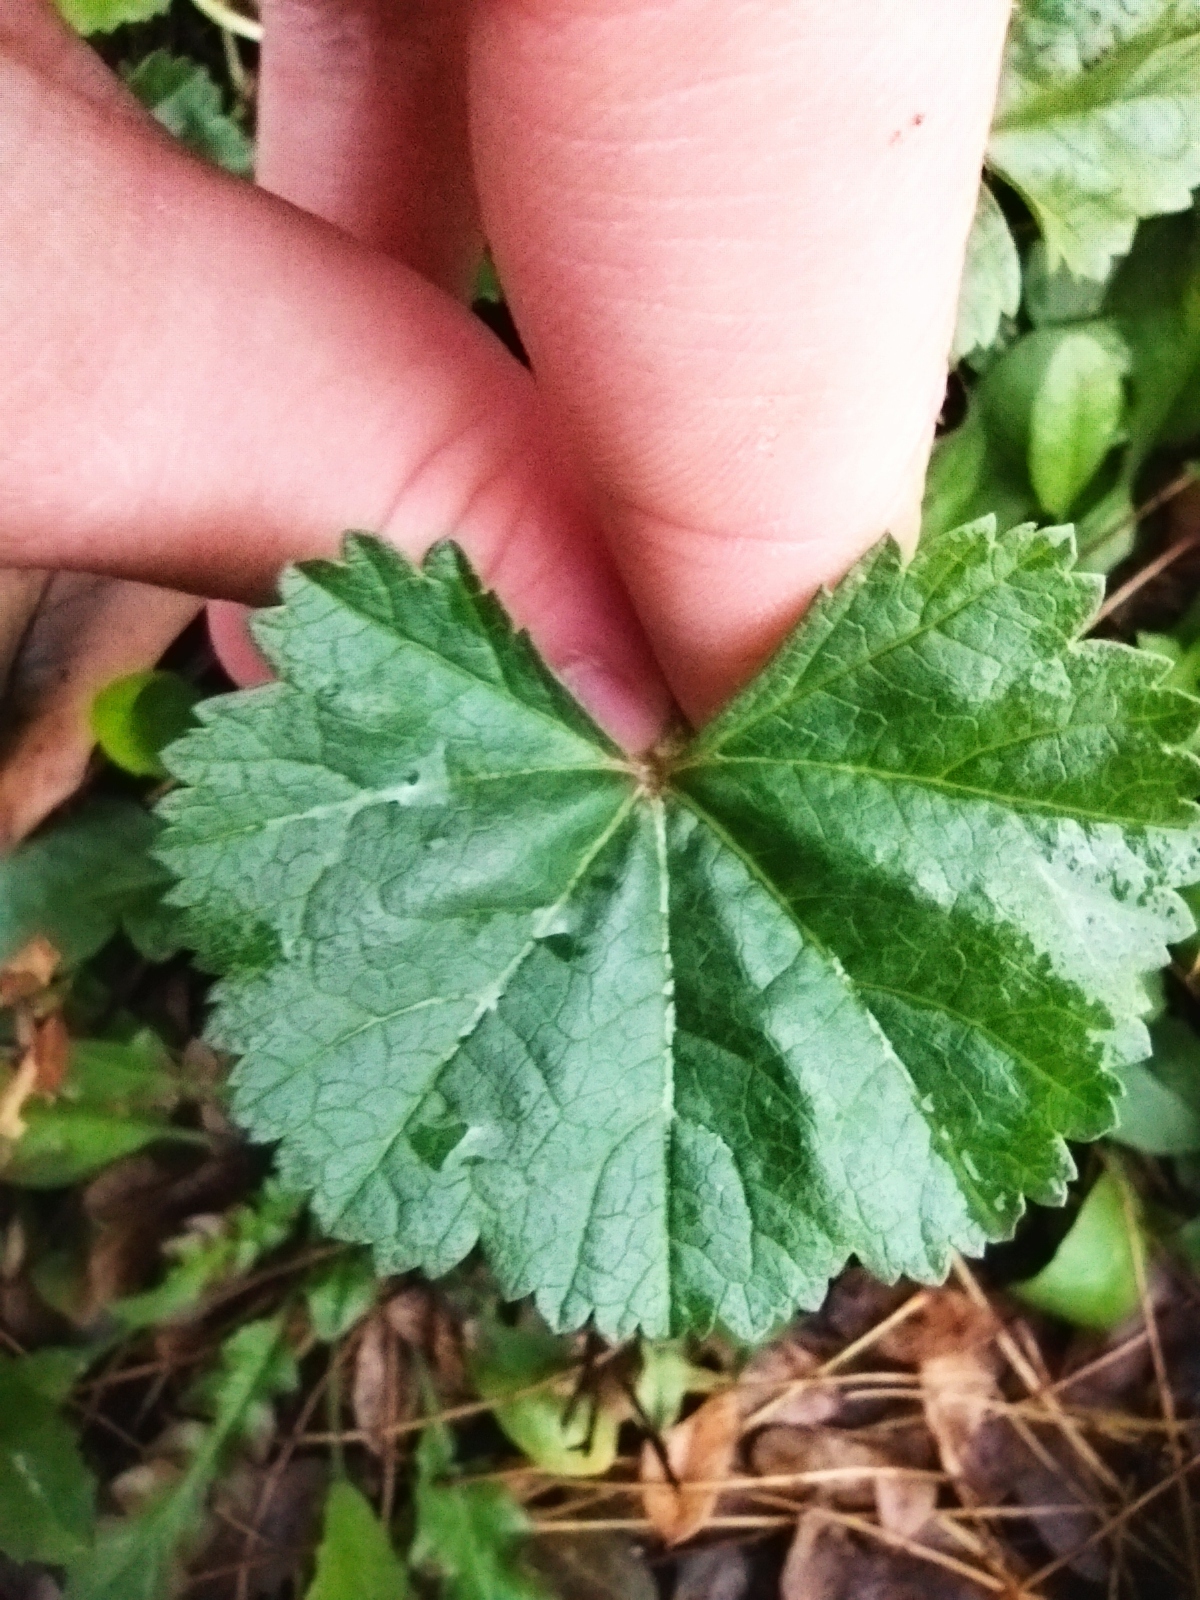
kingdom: Plantae
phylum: Tracheophyta
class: Magnoliopsida
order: Malvales
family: Malvaceae
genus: Malva
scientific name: Malva pusilla
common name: Small mallow
